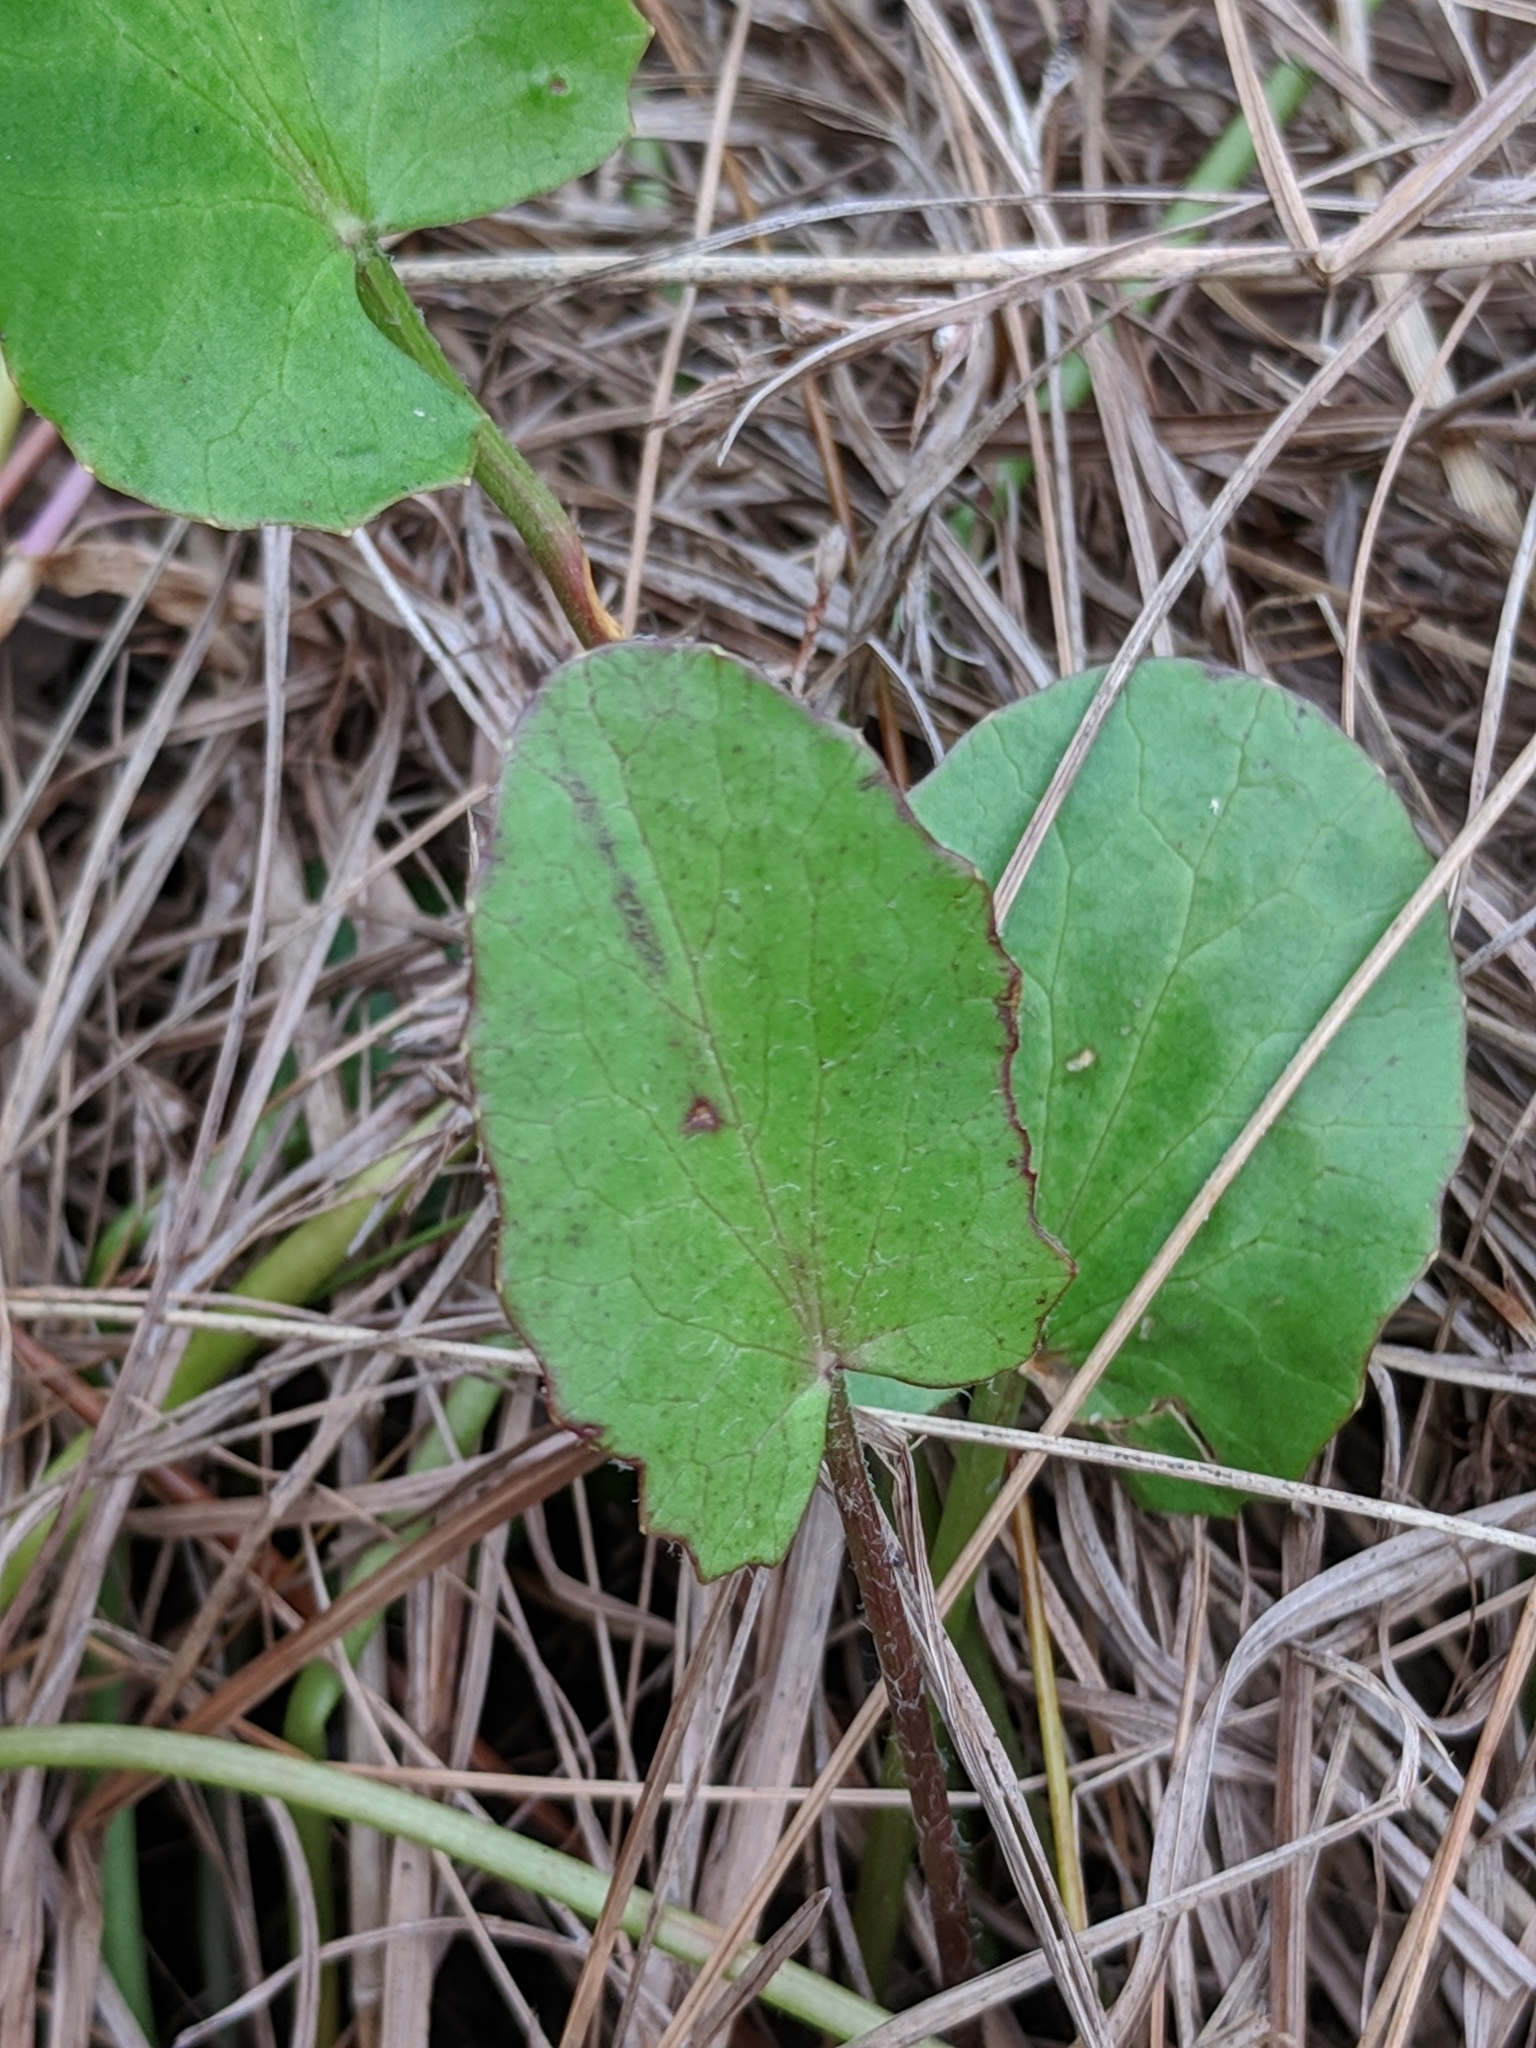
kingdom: Plantae
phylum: Tracheophyta
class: Magnoliopsida
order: Apiales
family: Apiaceae
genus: Centella
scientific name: Centella erecta
